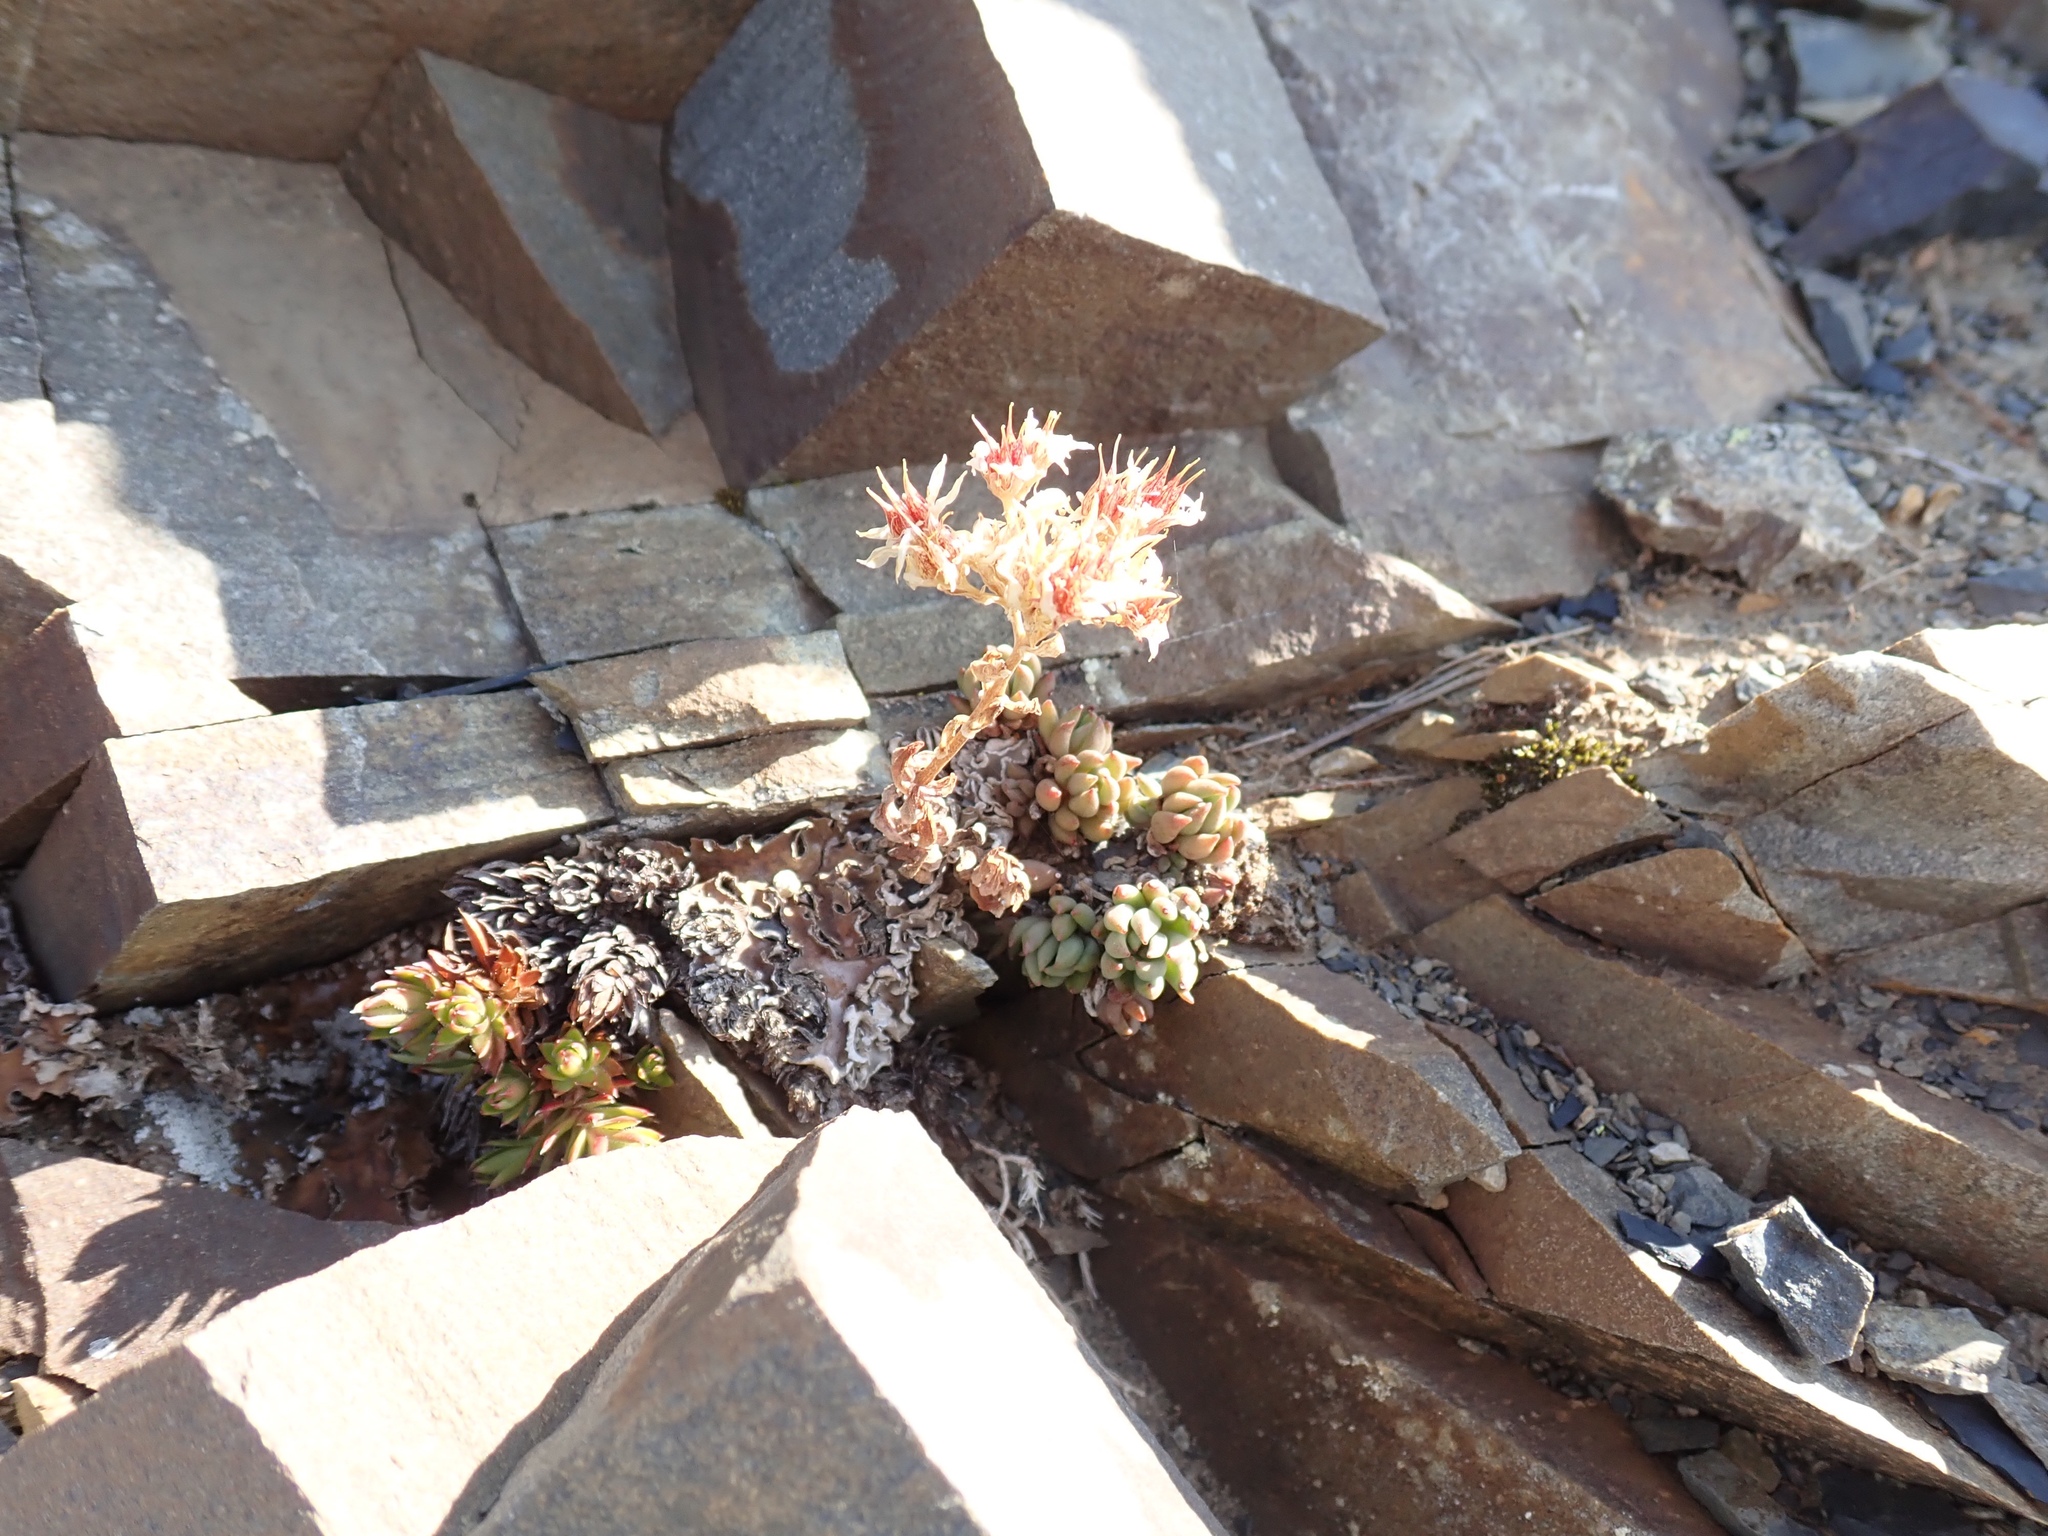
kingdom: Plantae
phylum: Tracheophyta
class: Magnoliopsida
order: Saxifragales
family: Crassulaceae
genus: Sedum
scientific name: Sedum lanceolatum
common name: Common stonecrop
